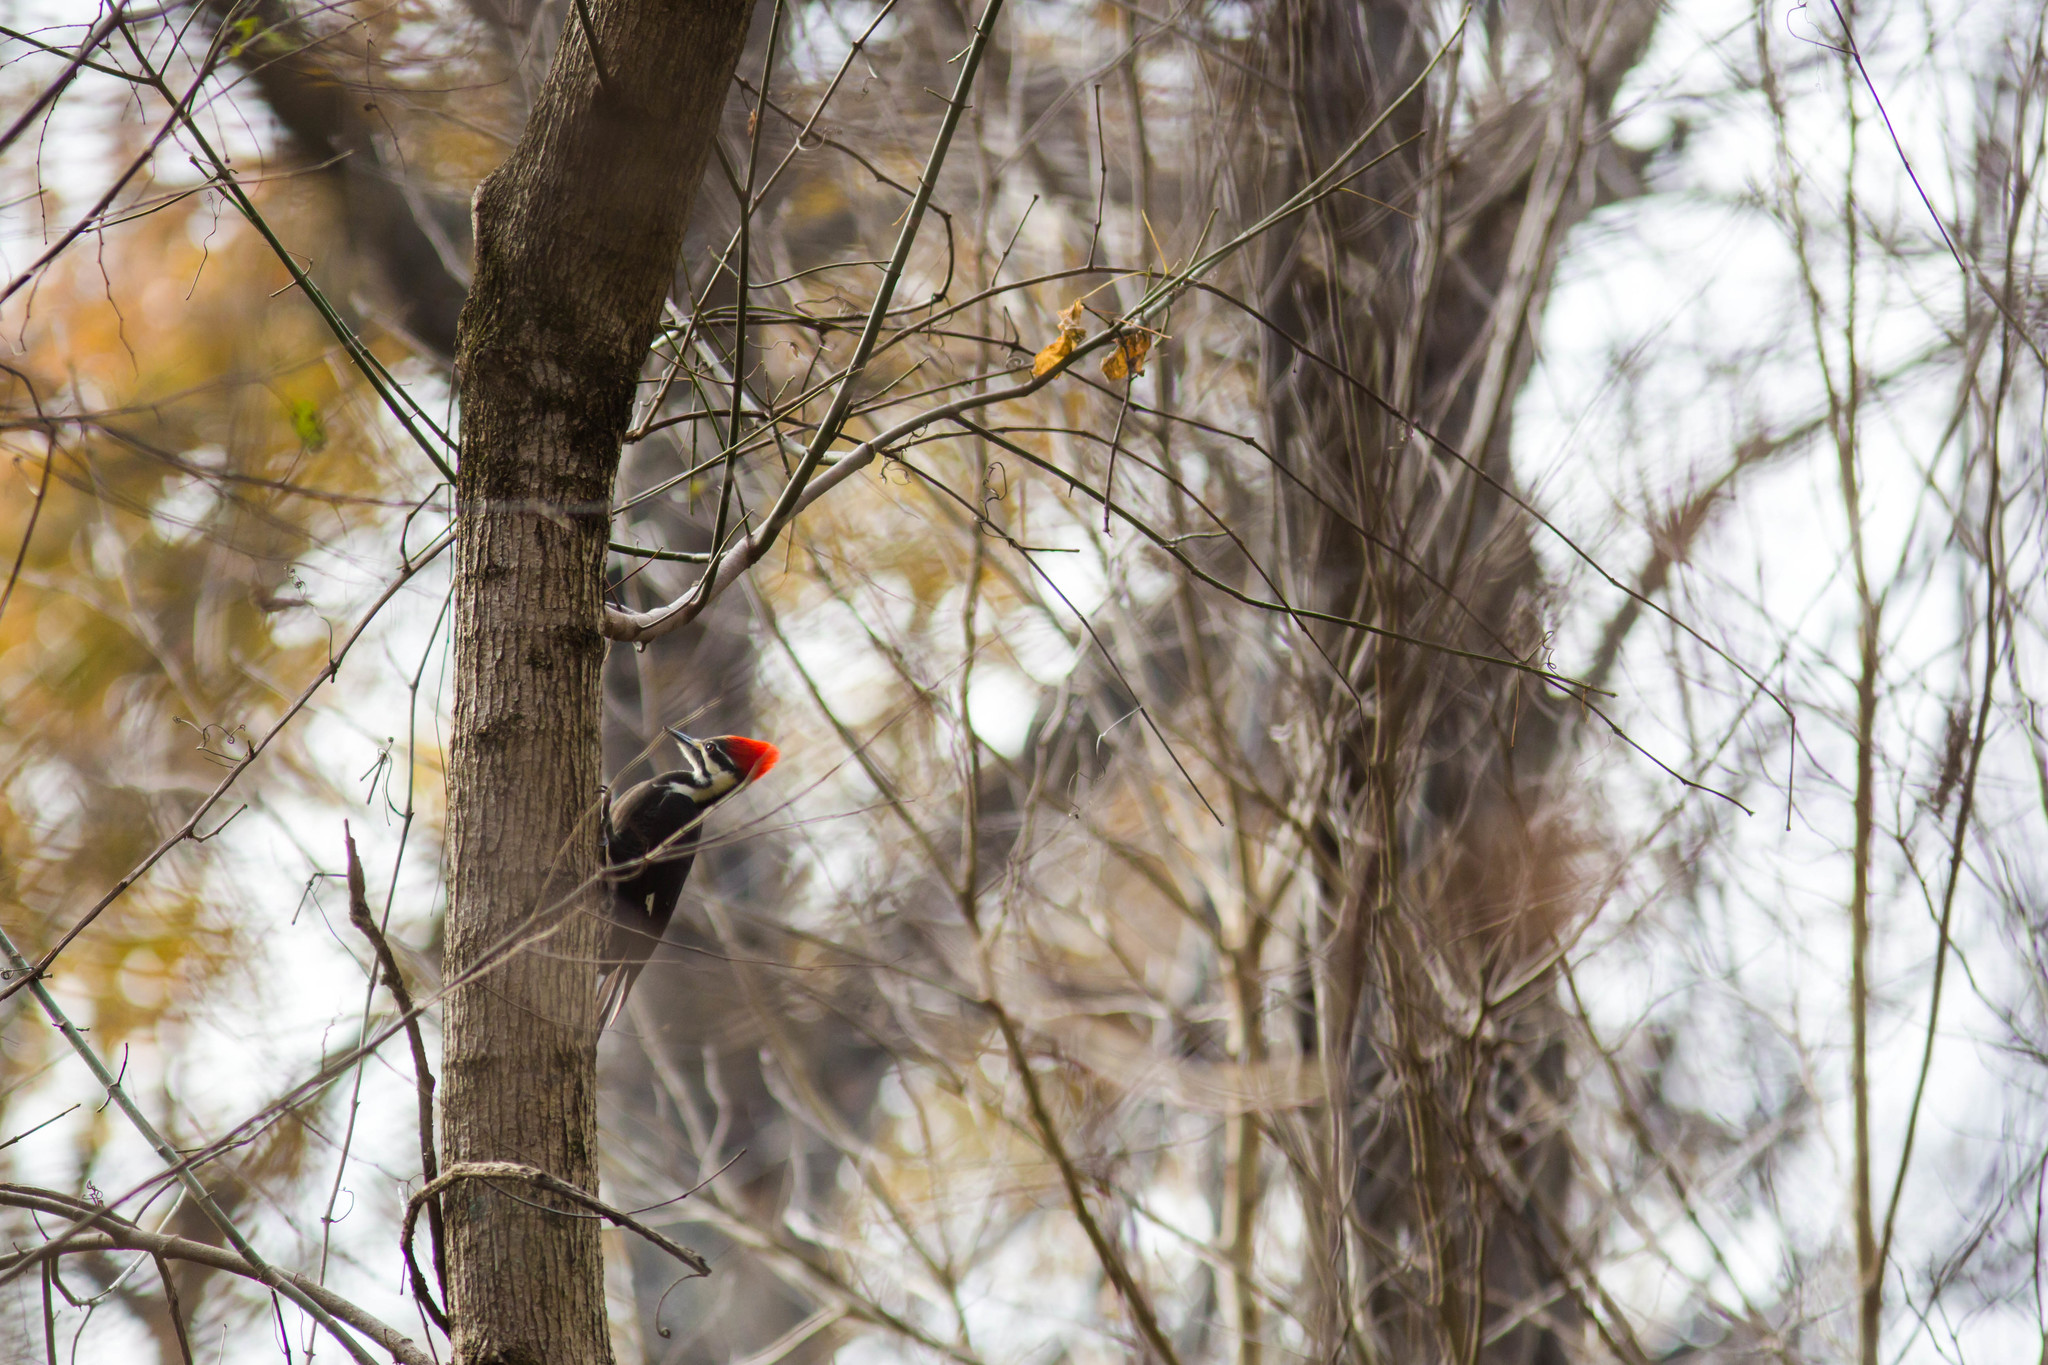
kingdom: Animalia
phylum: Chordata
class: Aves
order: Piciformes
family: Picidae
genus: Dryocopus
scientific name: Dryocopus pileatus
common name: Pileated woodpecker
